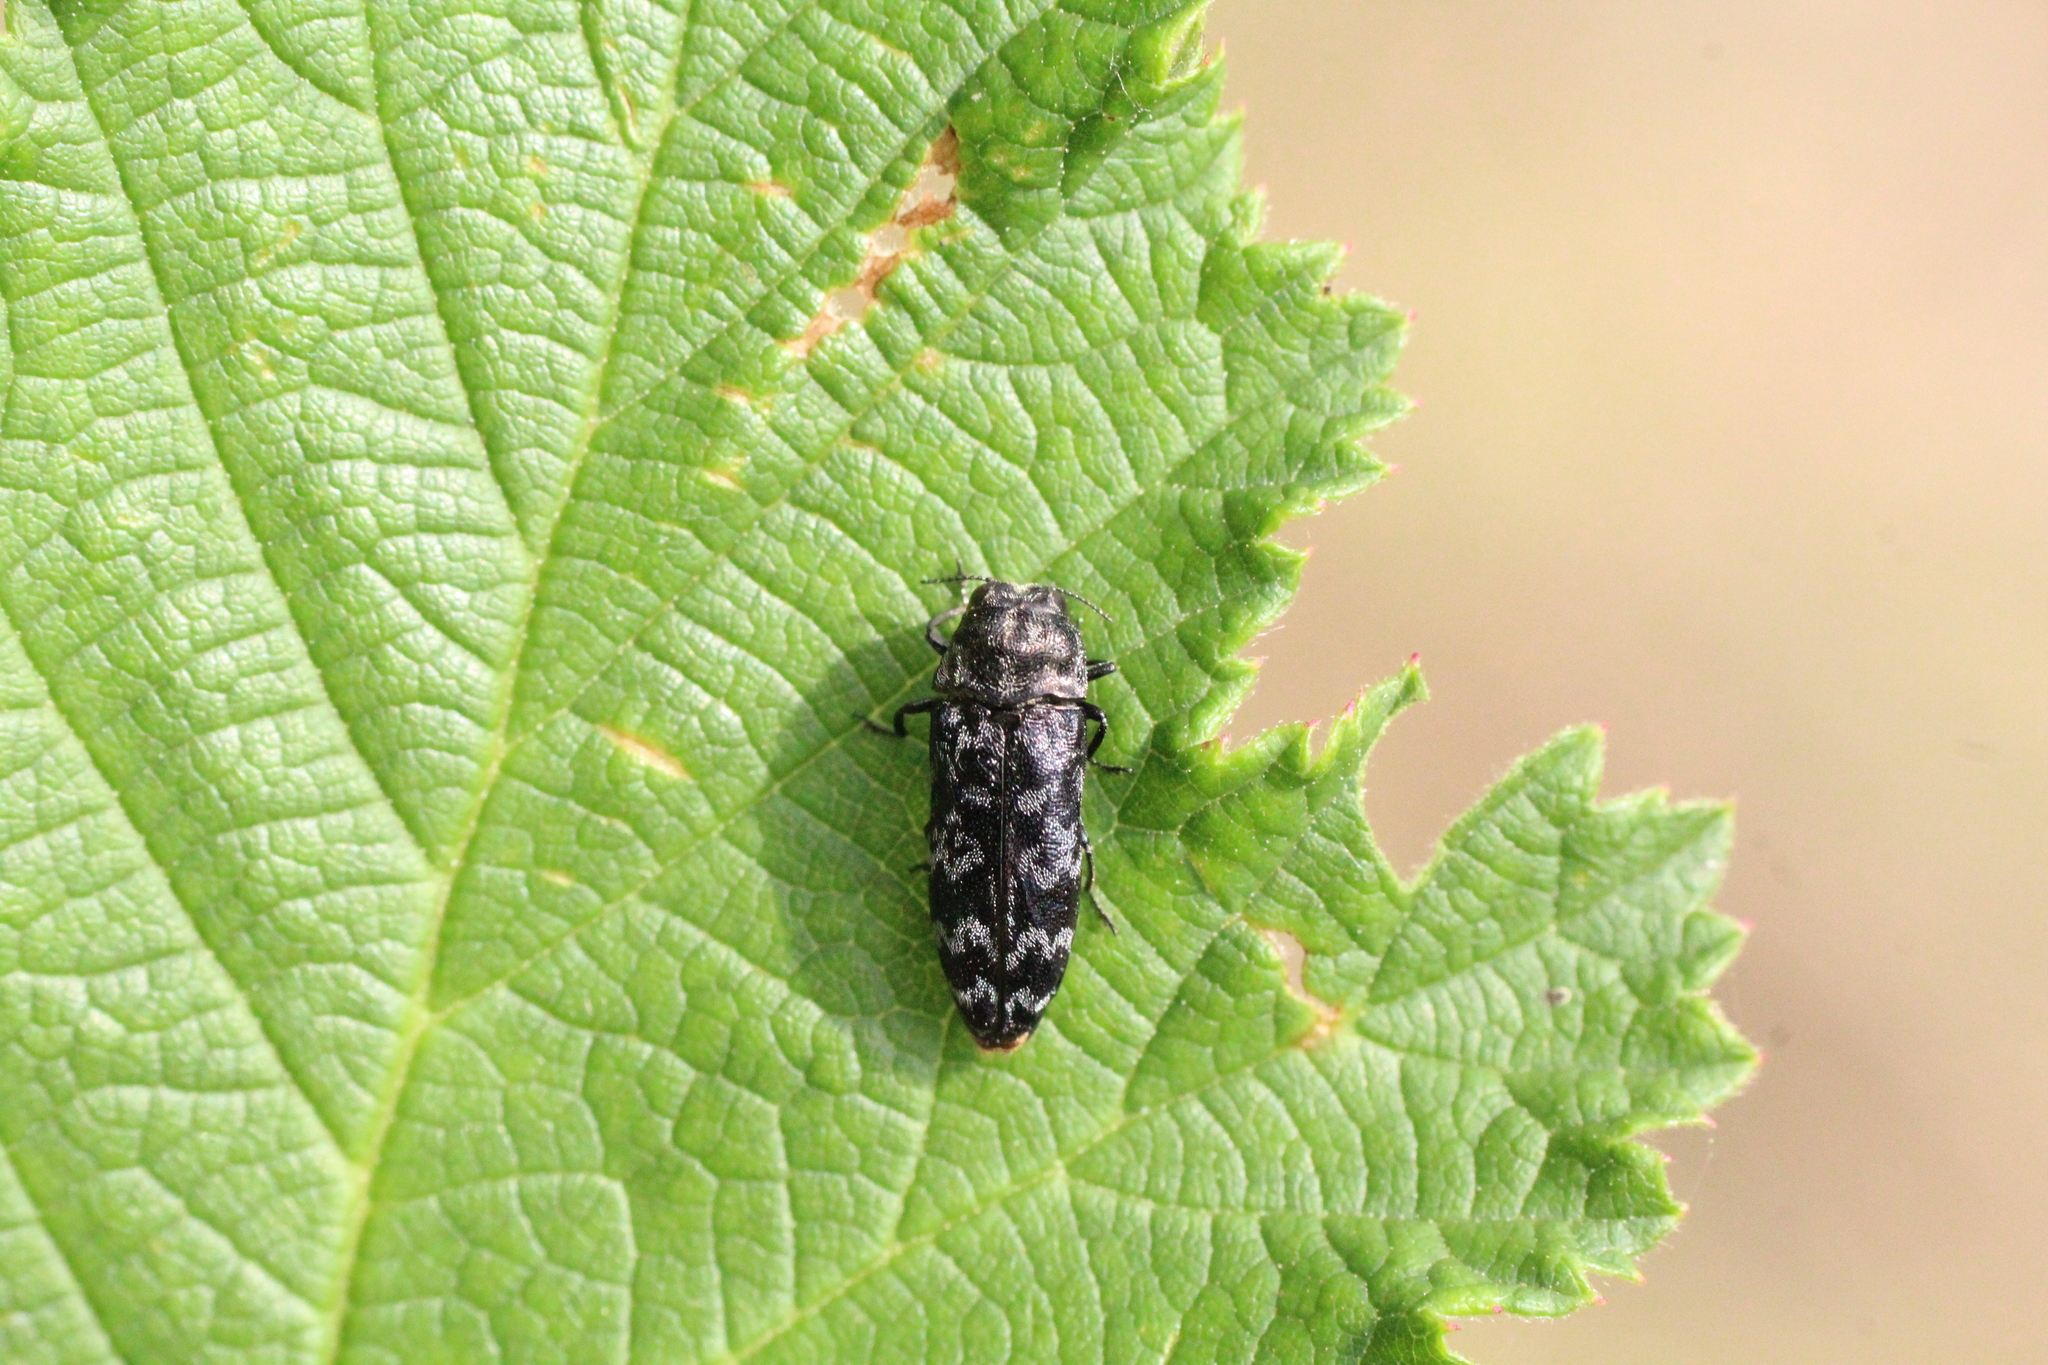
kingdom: Animalia
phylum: Arthropoda
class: Insecta
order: Coleoptera
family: Buprestidae
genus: Coraebus
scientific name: Coraebus rubi
